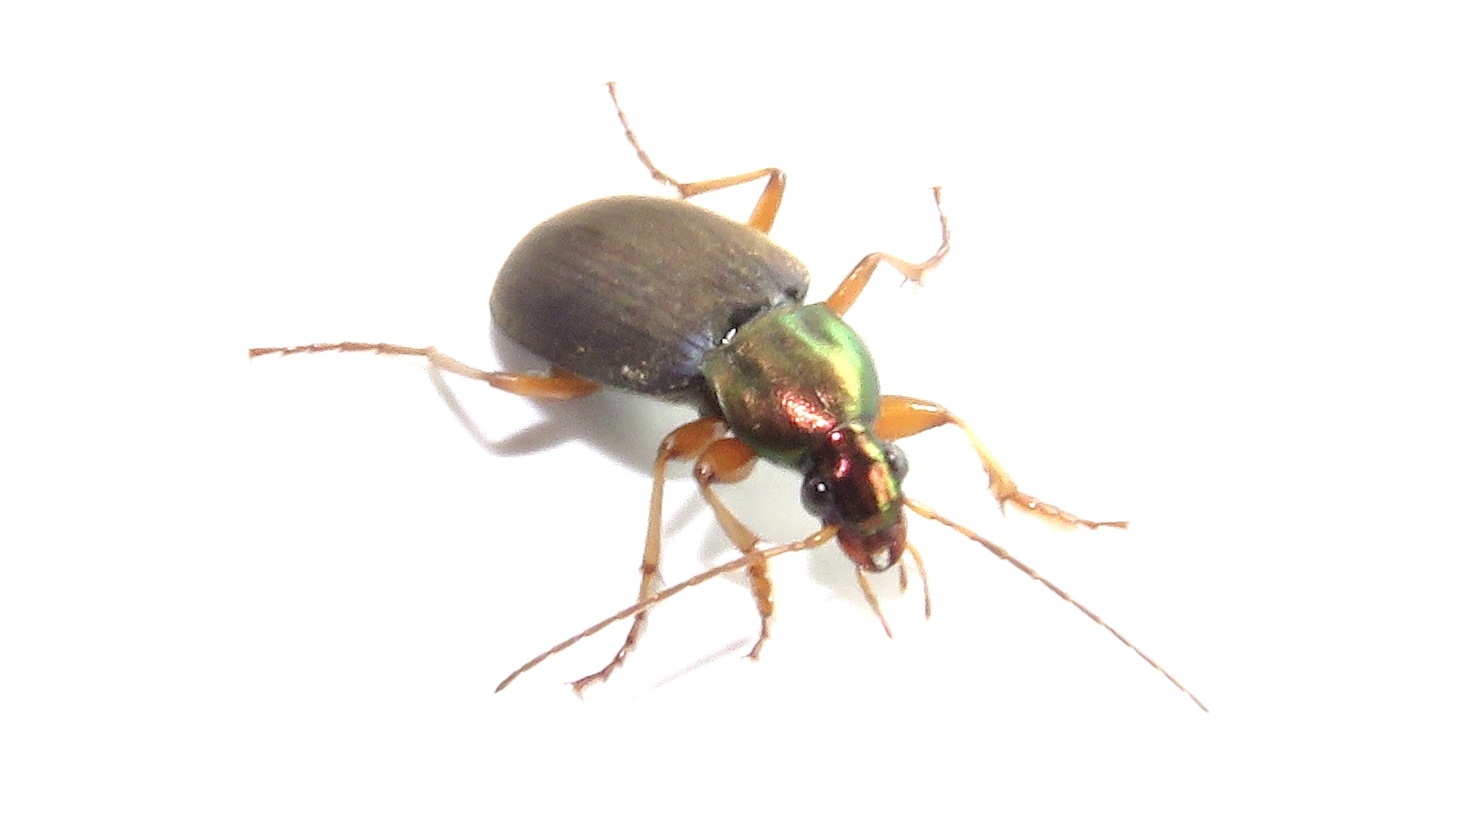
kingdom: Animalia
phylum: Arthropoda
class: Insecta
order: Coleoptera
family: Carabidae
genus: Chlaenius
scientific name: Chlaenius tricolor
